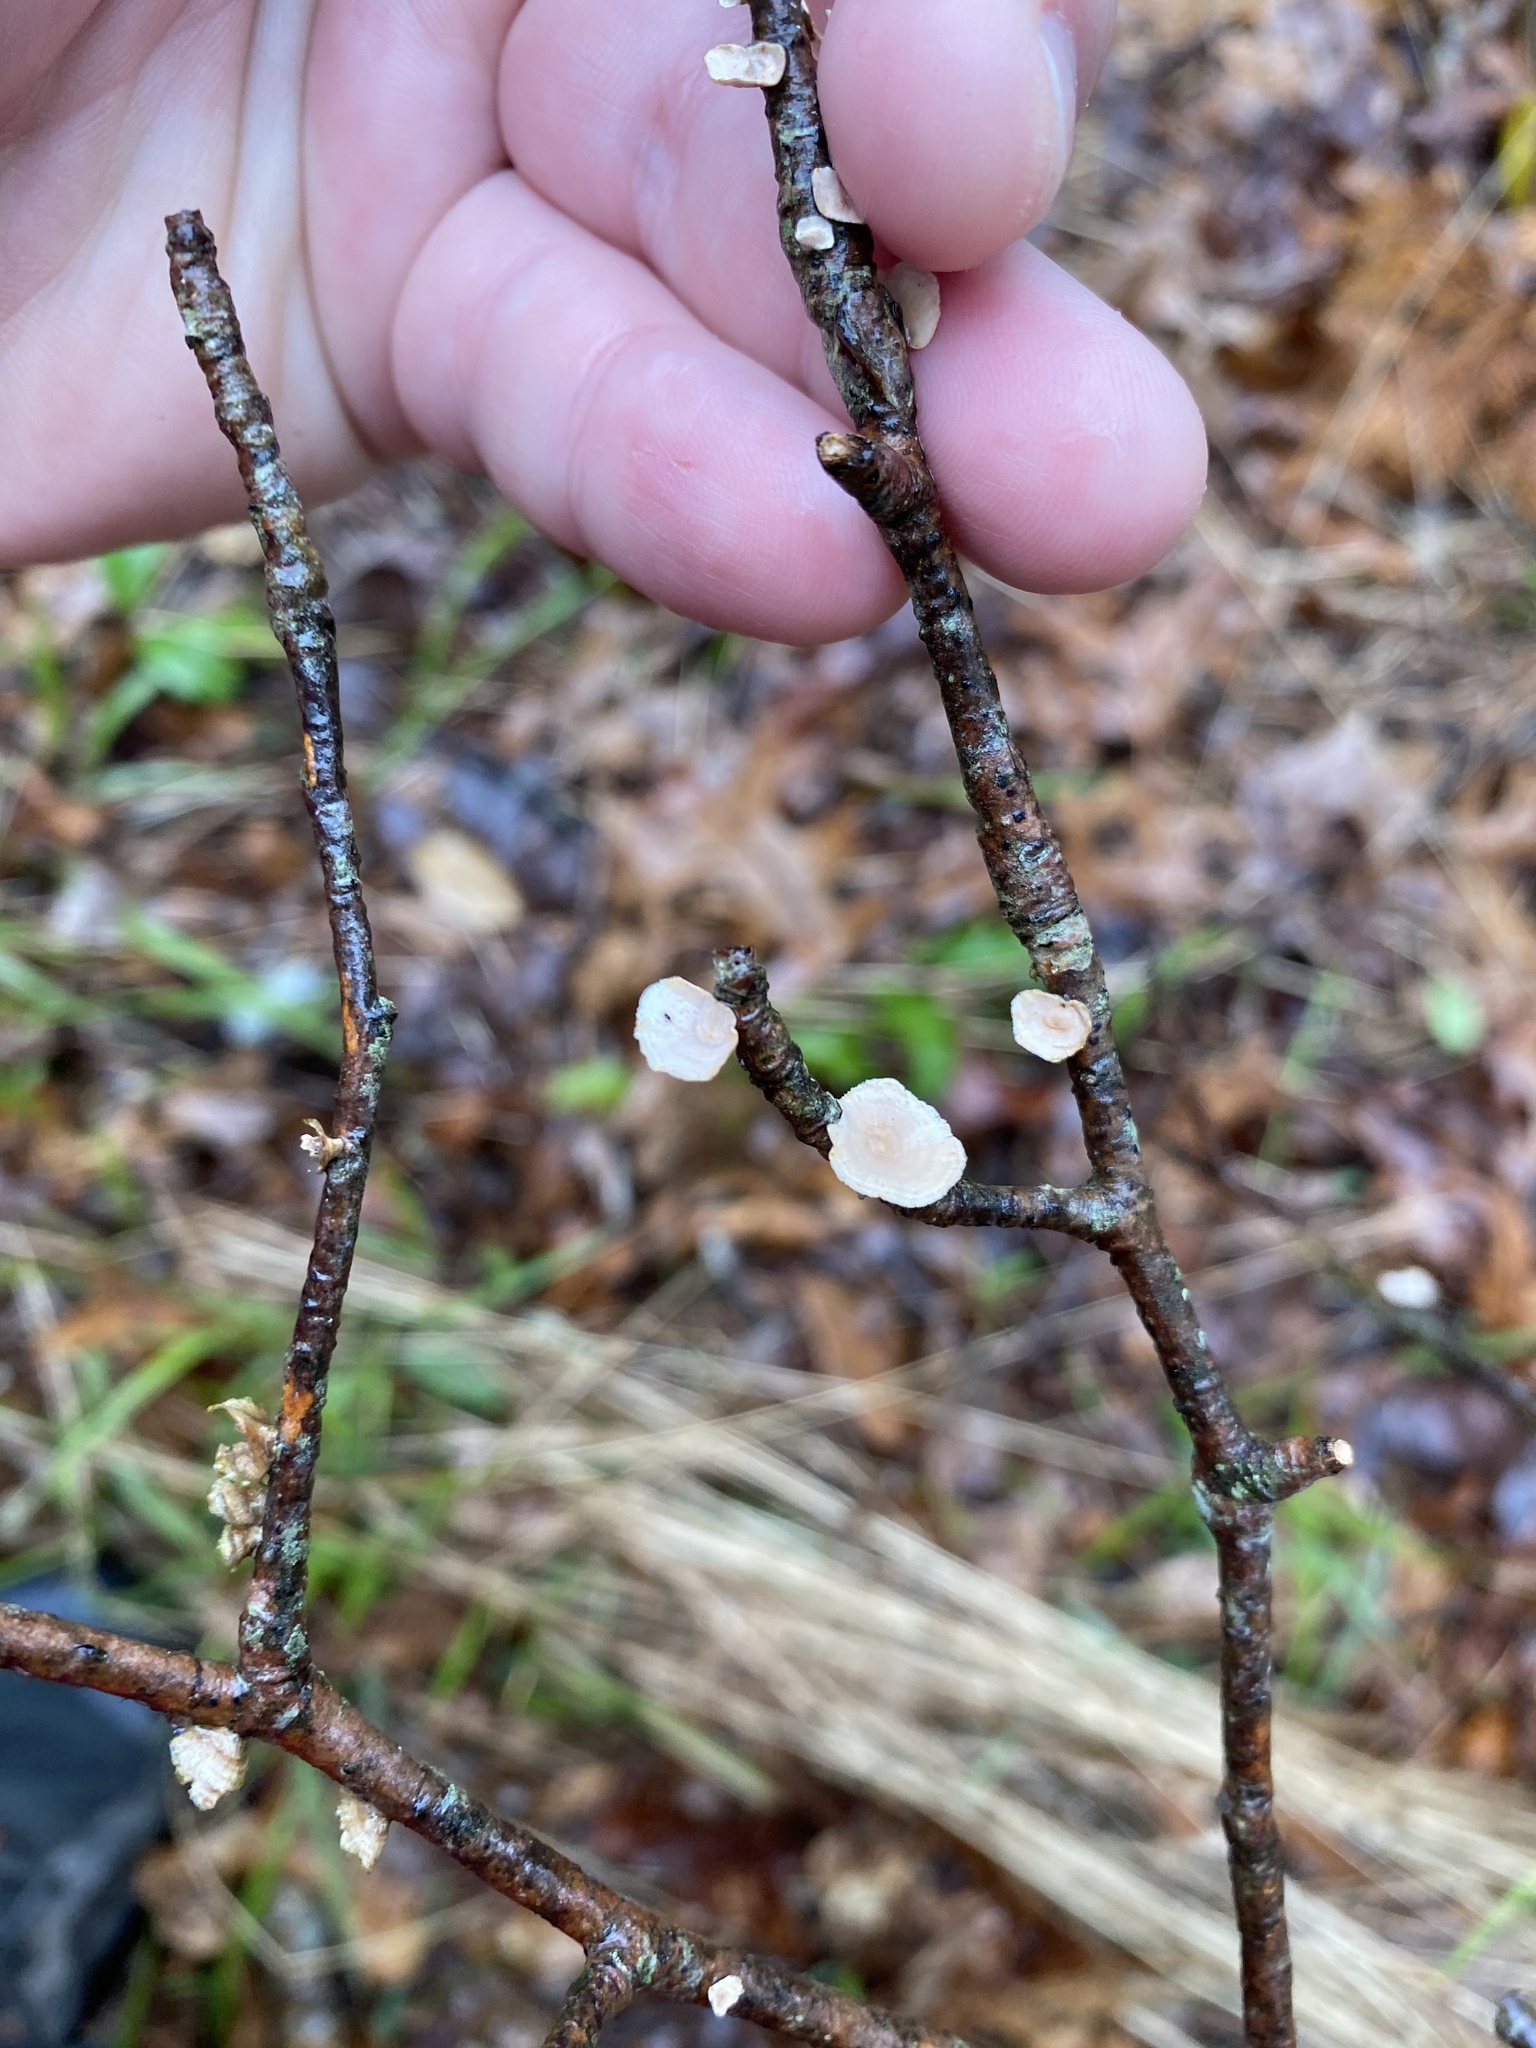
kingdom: Fungi
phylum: Basidiomycota
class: Agaricomycetes
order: Polyporales
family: Polyporaceae
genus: Poronidulus
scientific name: Poronidulus conchifer
